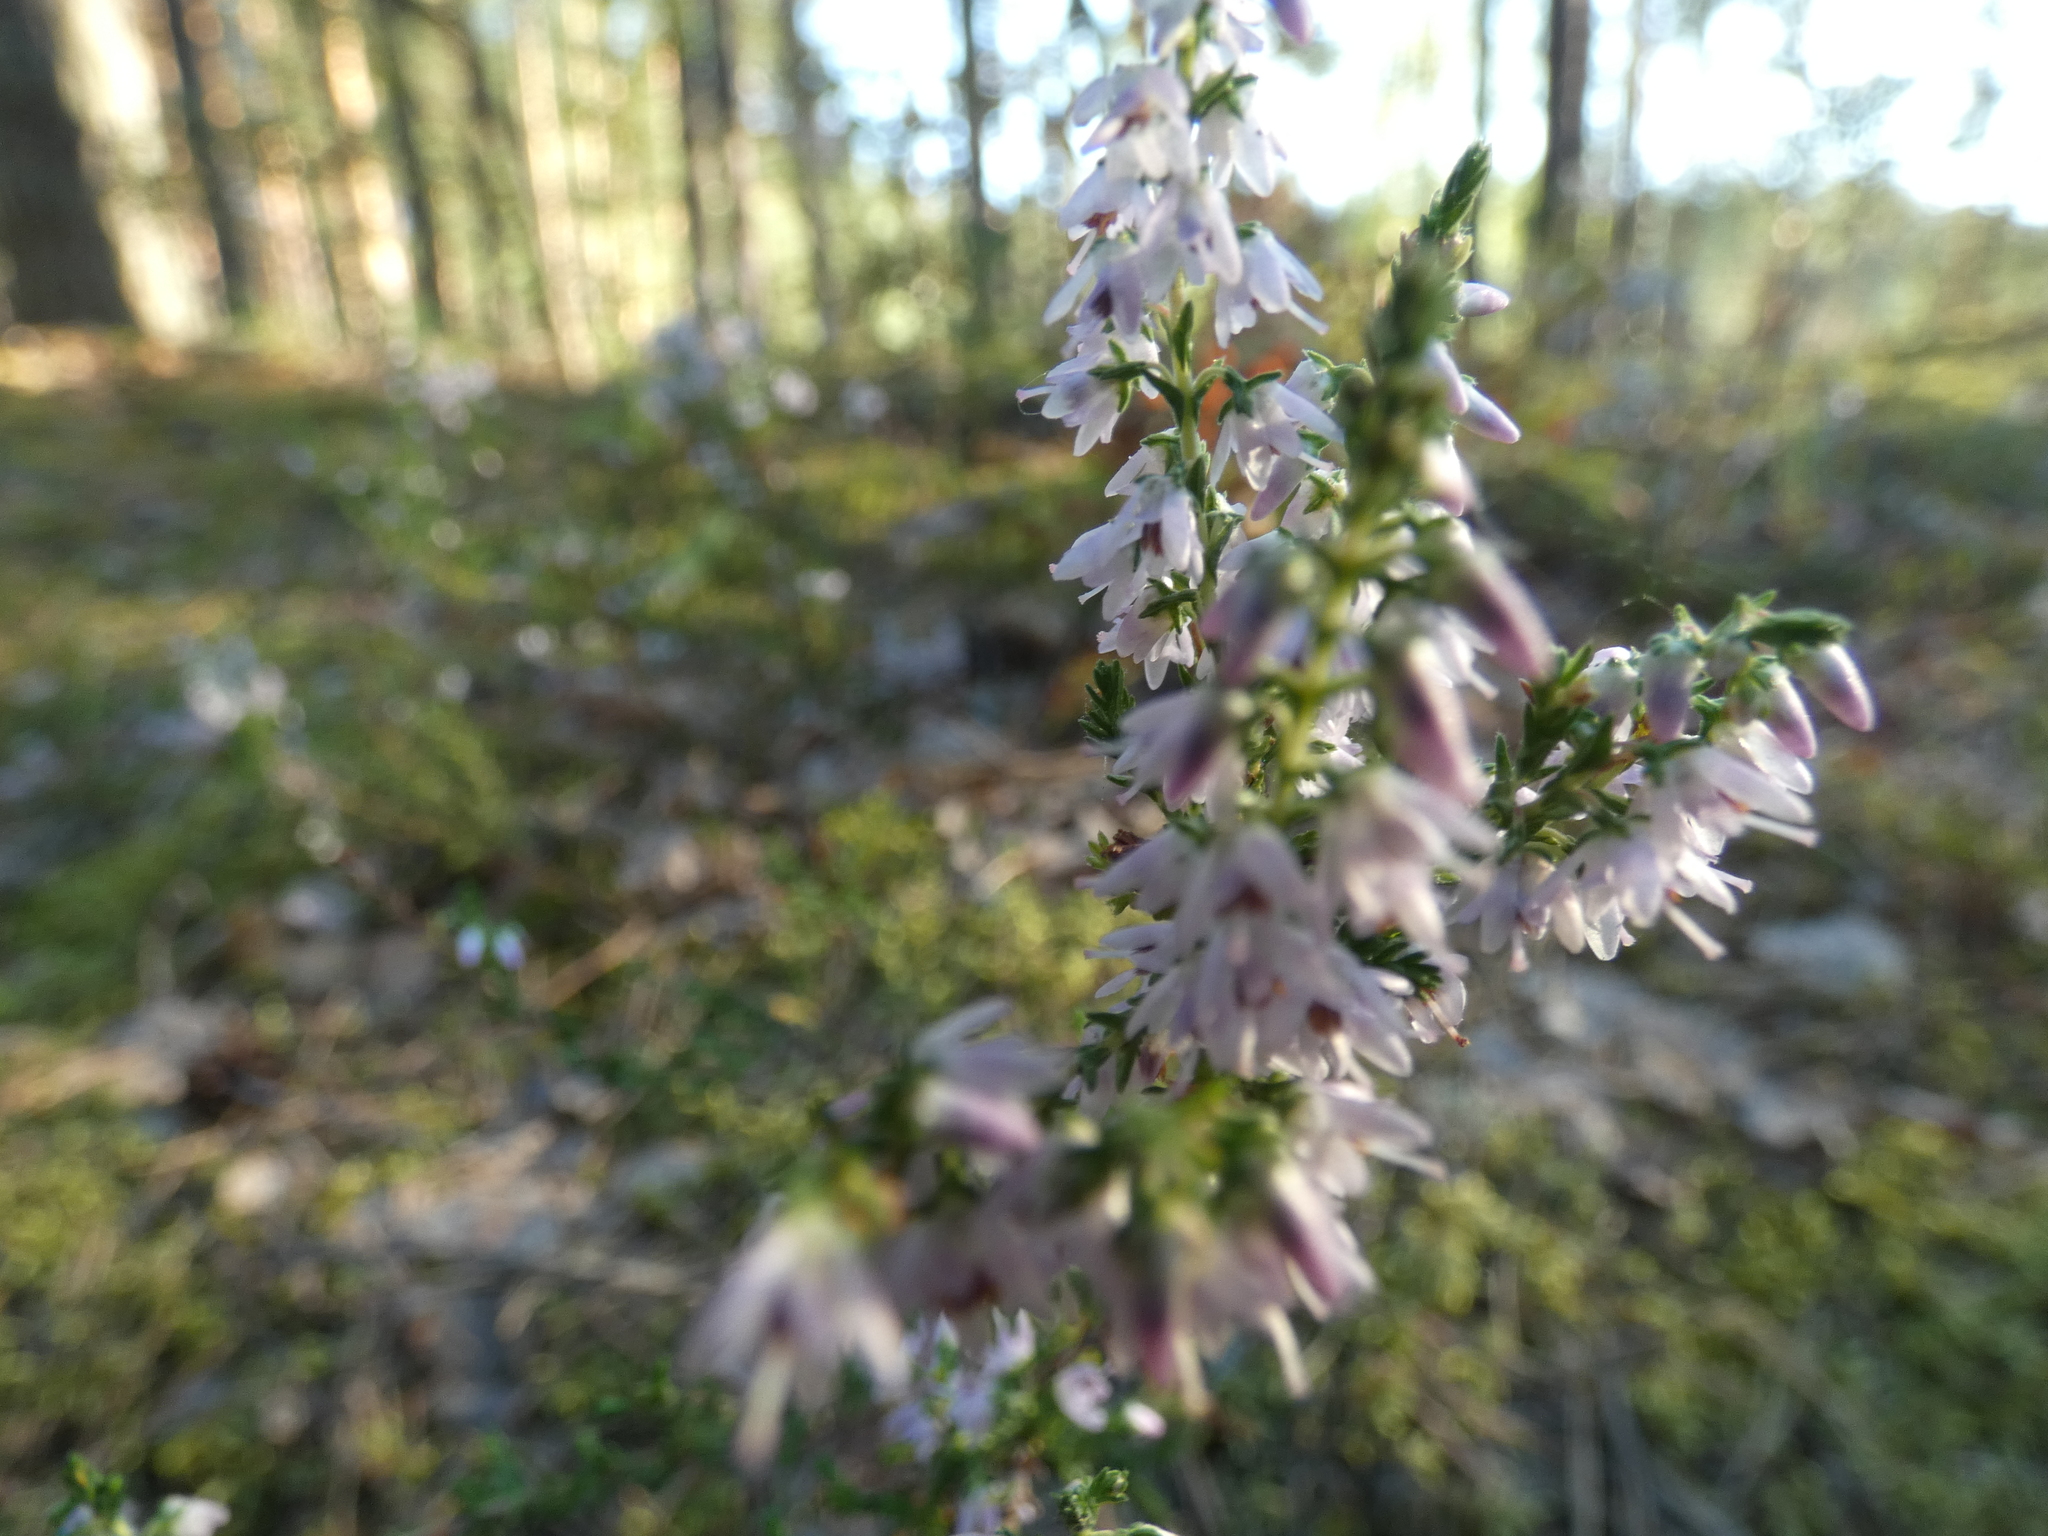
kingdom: Plantae
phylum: Tracheophyta
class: Magnoliopsida
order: Ericales
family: Ericaceae
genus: Calluna
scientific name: Calluna vulgaris
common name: Heather
